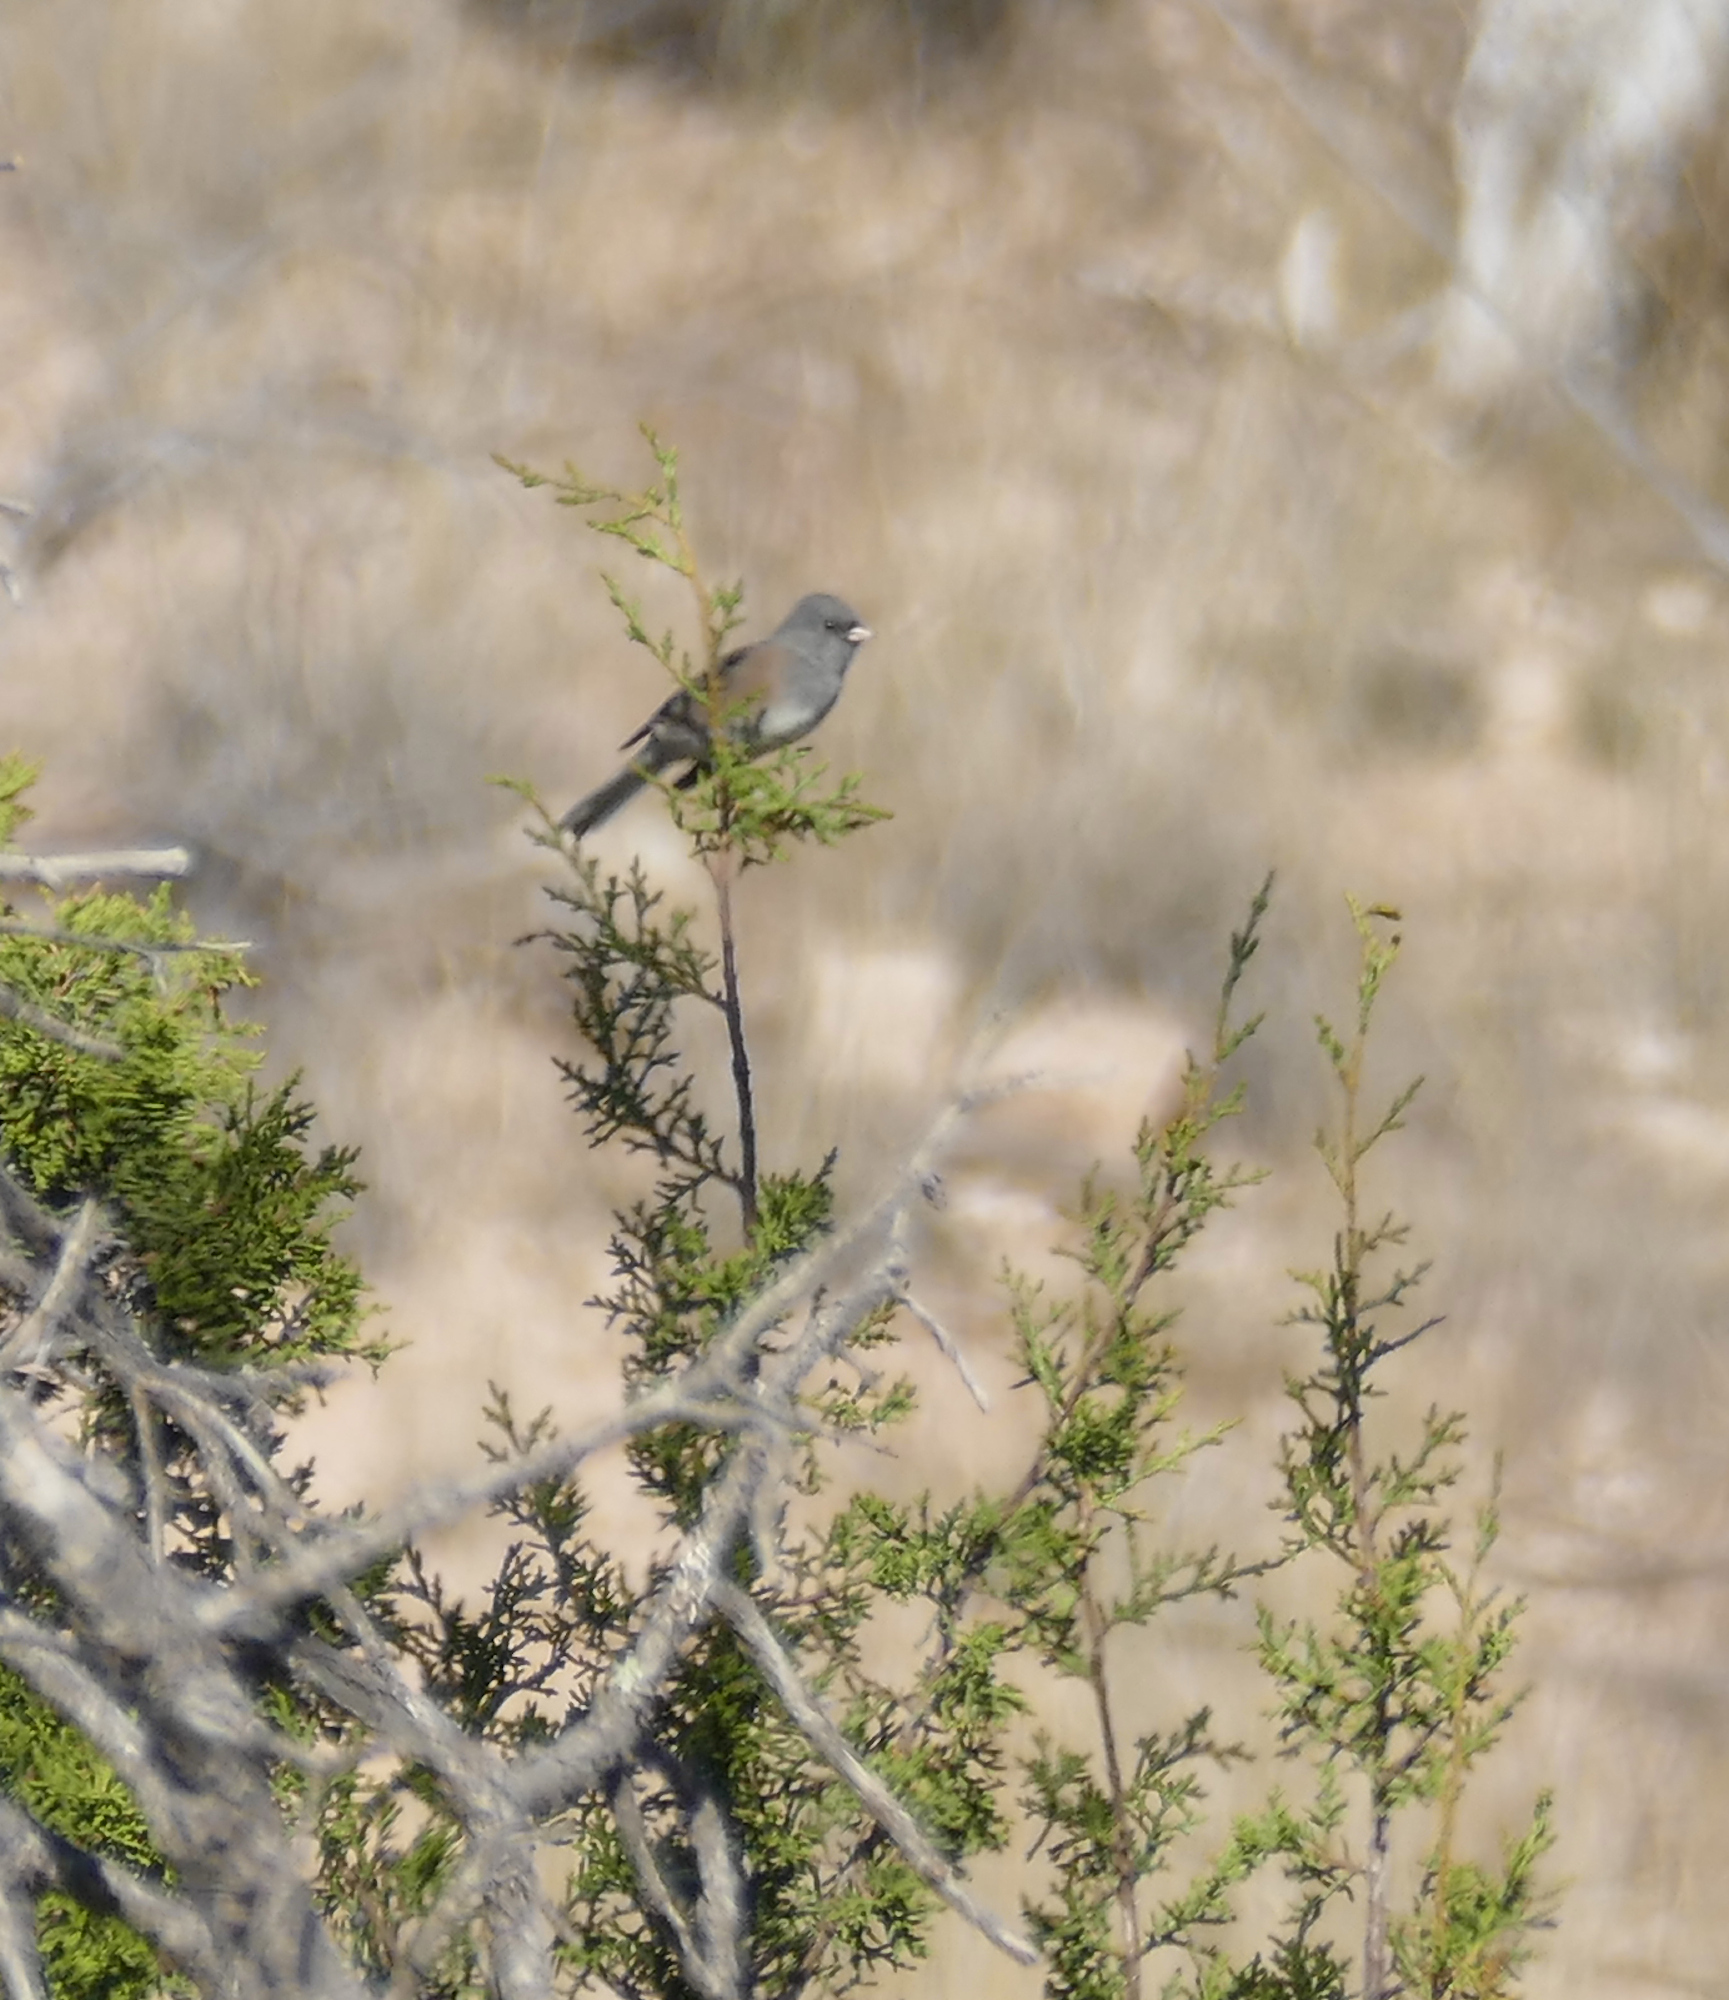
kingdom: Animalia
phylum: Chordata
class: Aves
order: Passeriformes
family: Passerellidae
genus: Junco
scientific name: Junco hyemalis
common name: Dark-eyed junco
